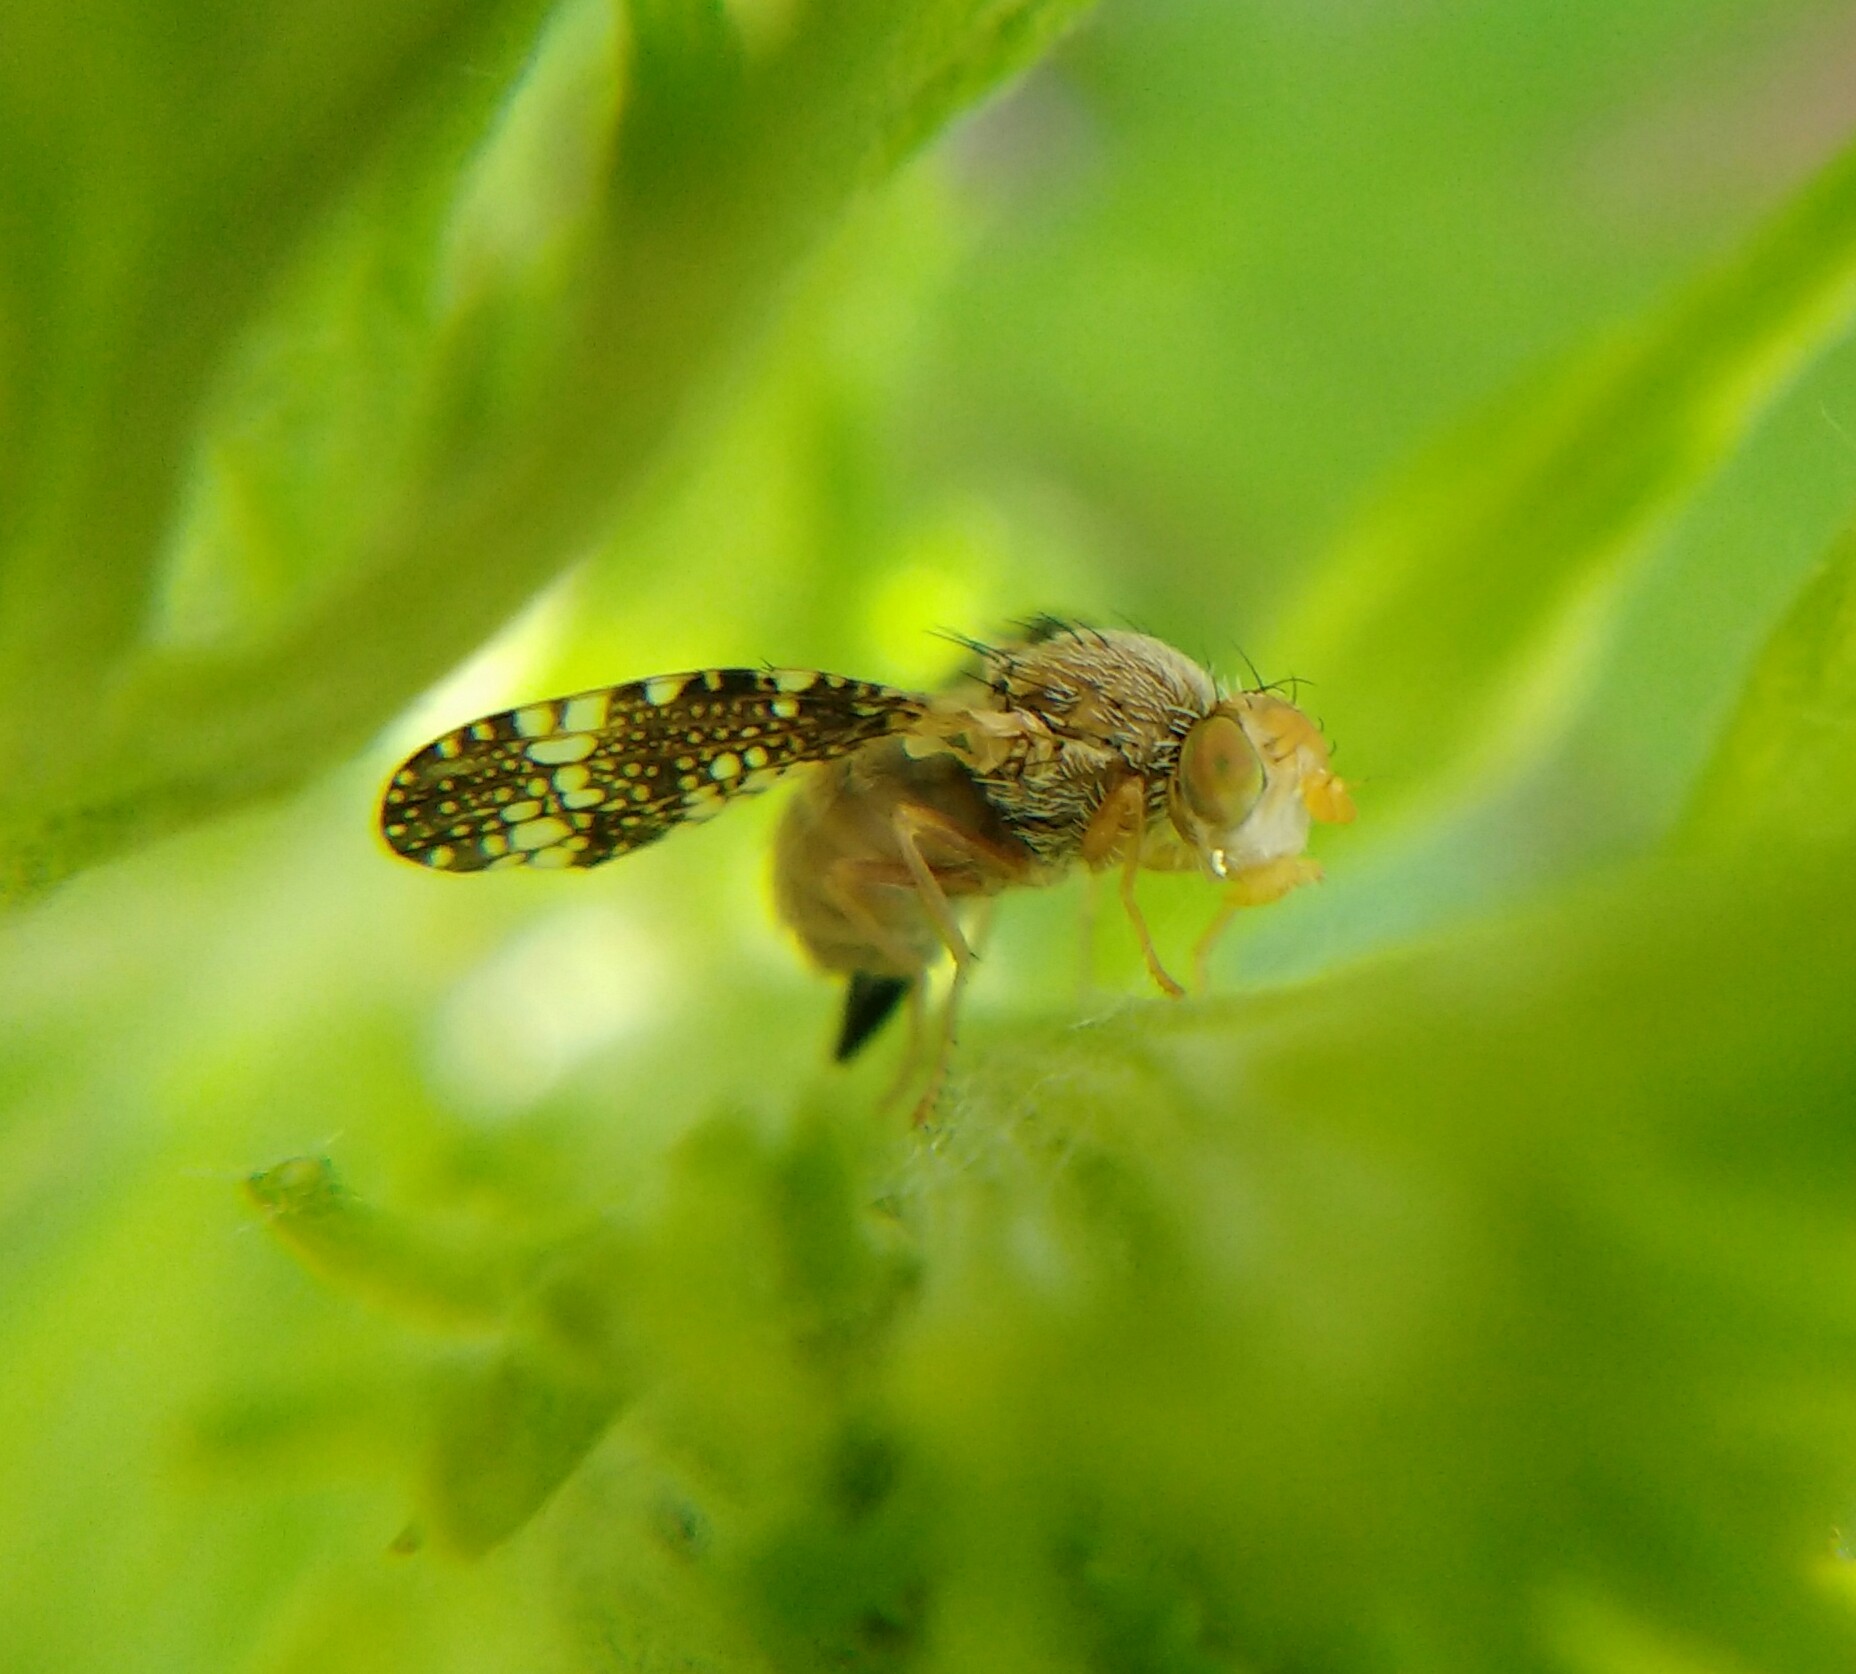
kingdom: Animalia
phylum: Arthropoda
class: Insecta
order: Diptera
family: Tephritidae
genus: Oxyna
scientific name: Oxyna parietina
